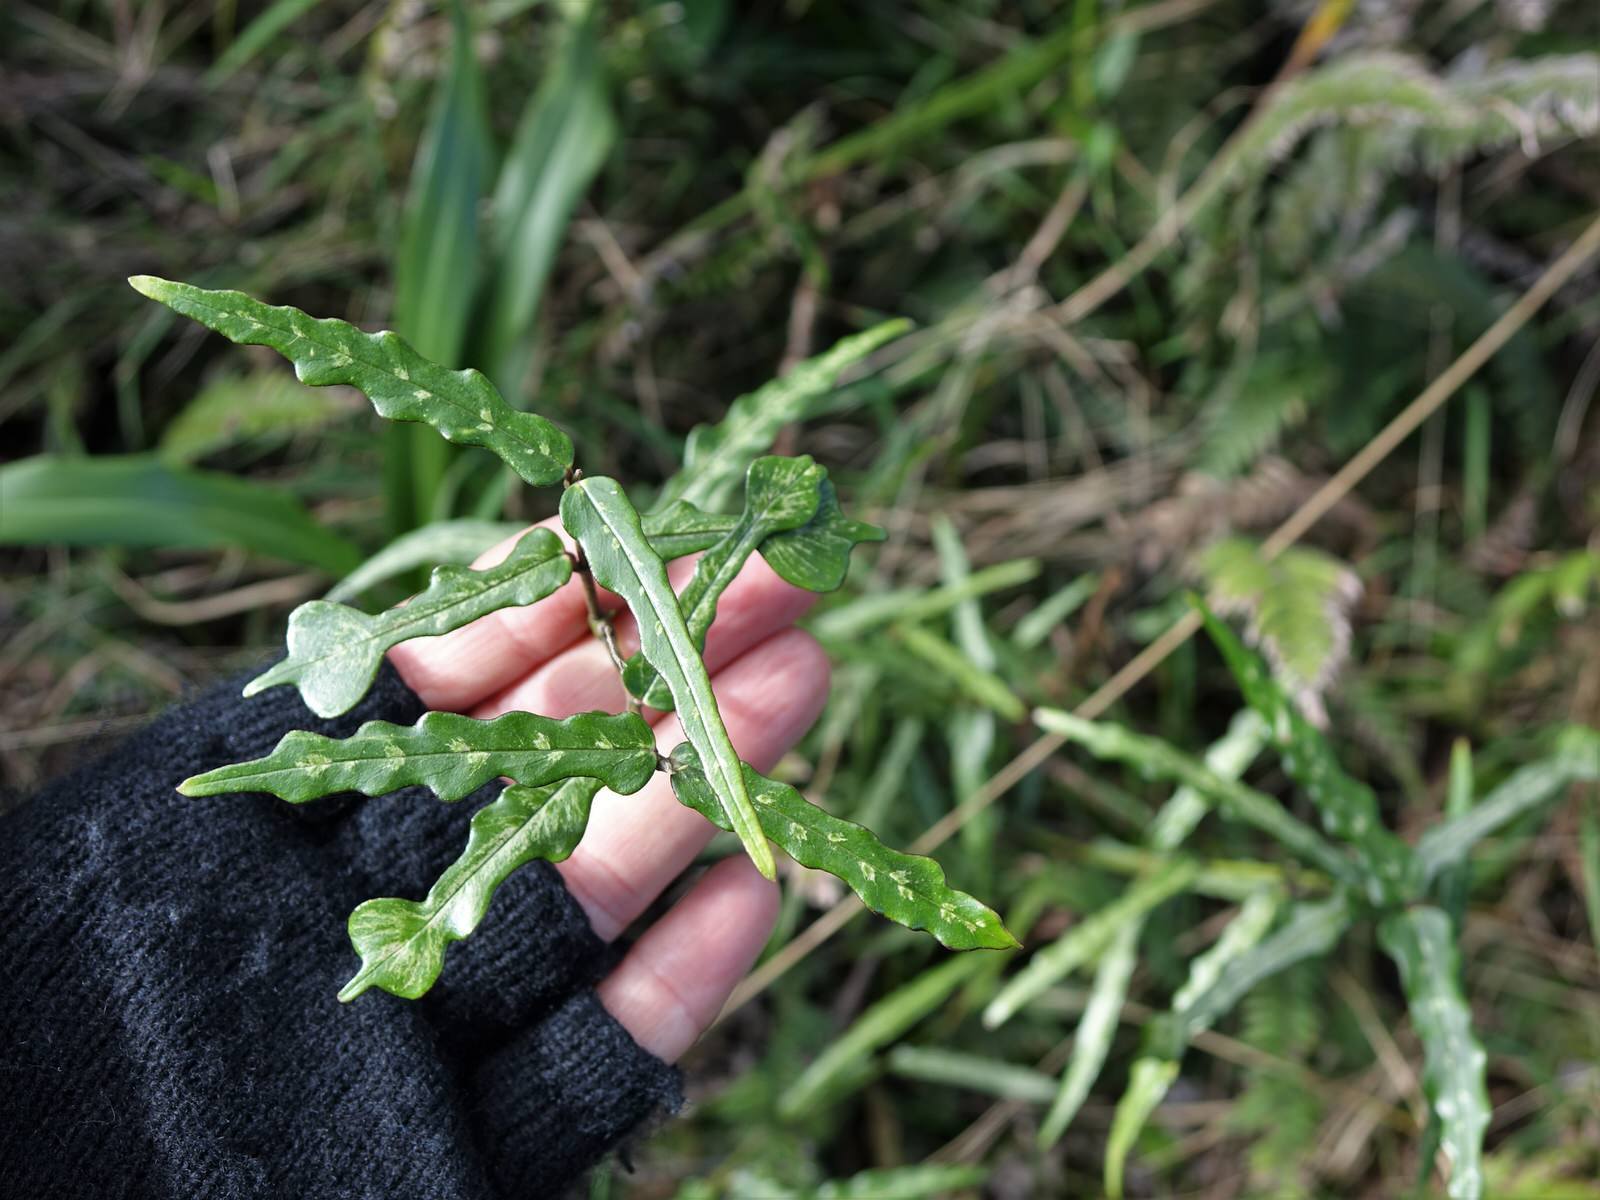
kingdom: Plantae
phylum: Tracheophyta
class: Magnoliopsida
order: Gentianales
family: Apocynaceae
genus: Parsonsia
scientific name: Parsonsia heterophylla
